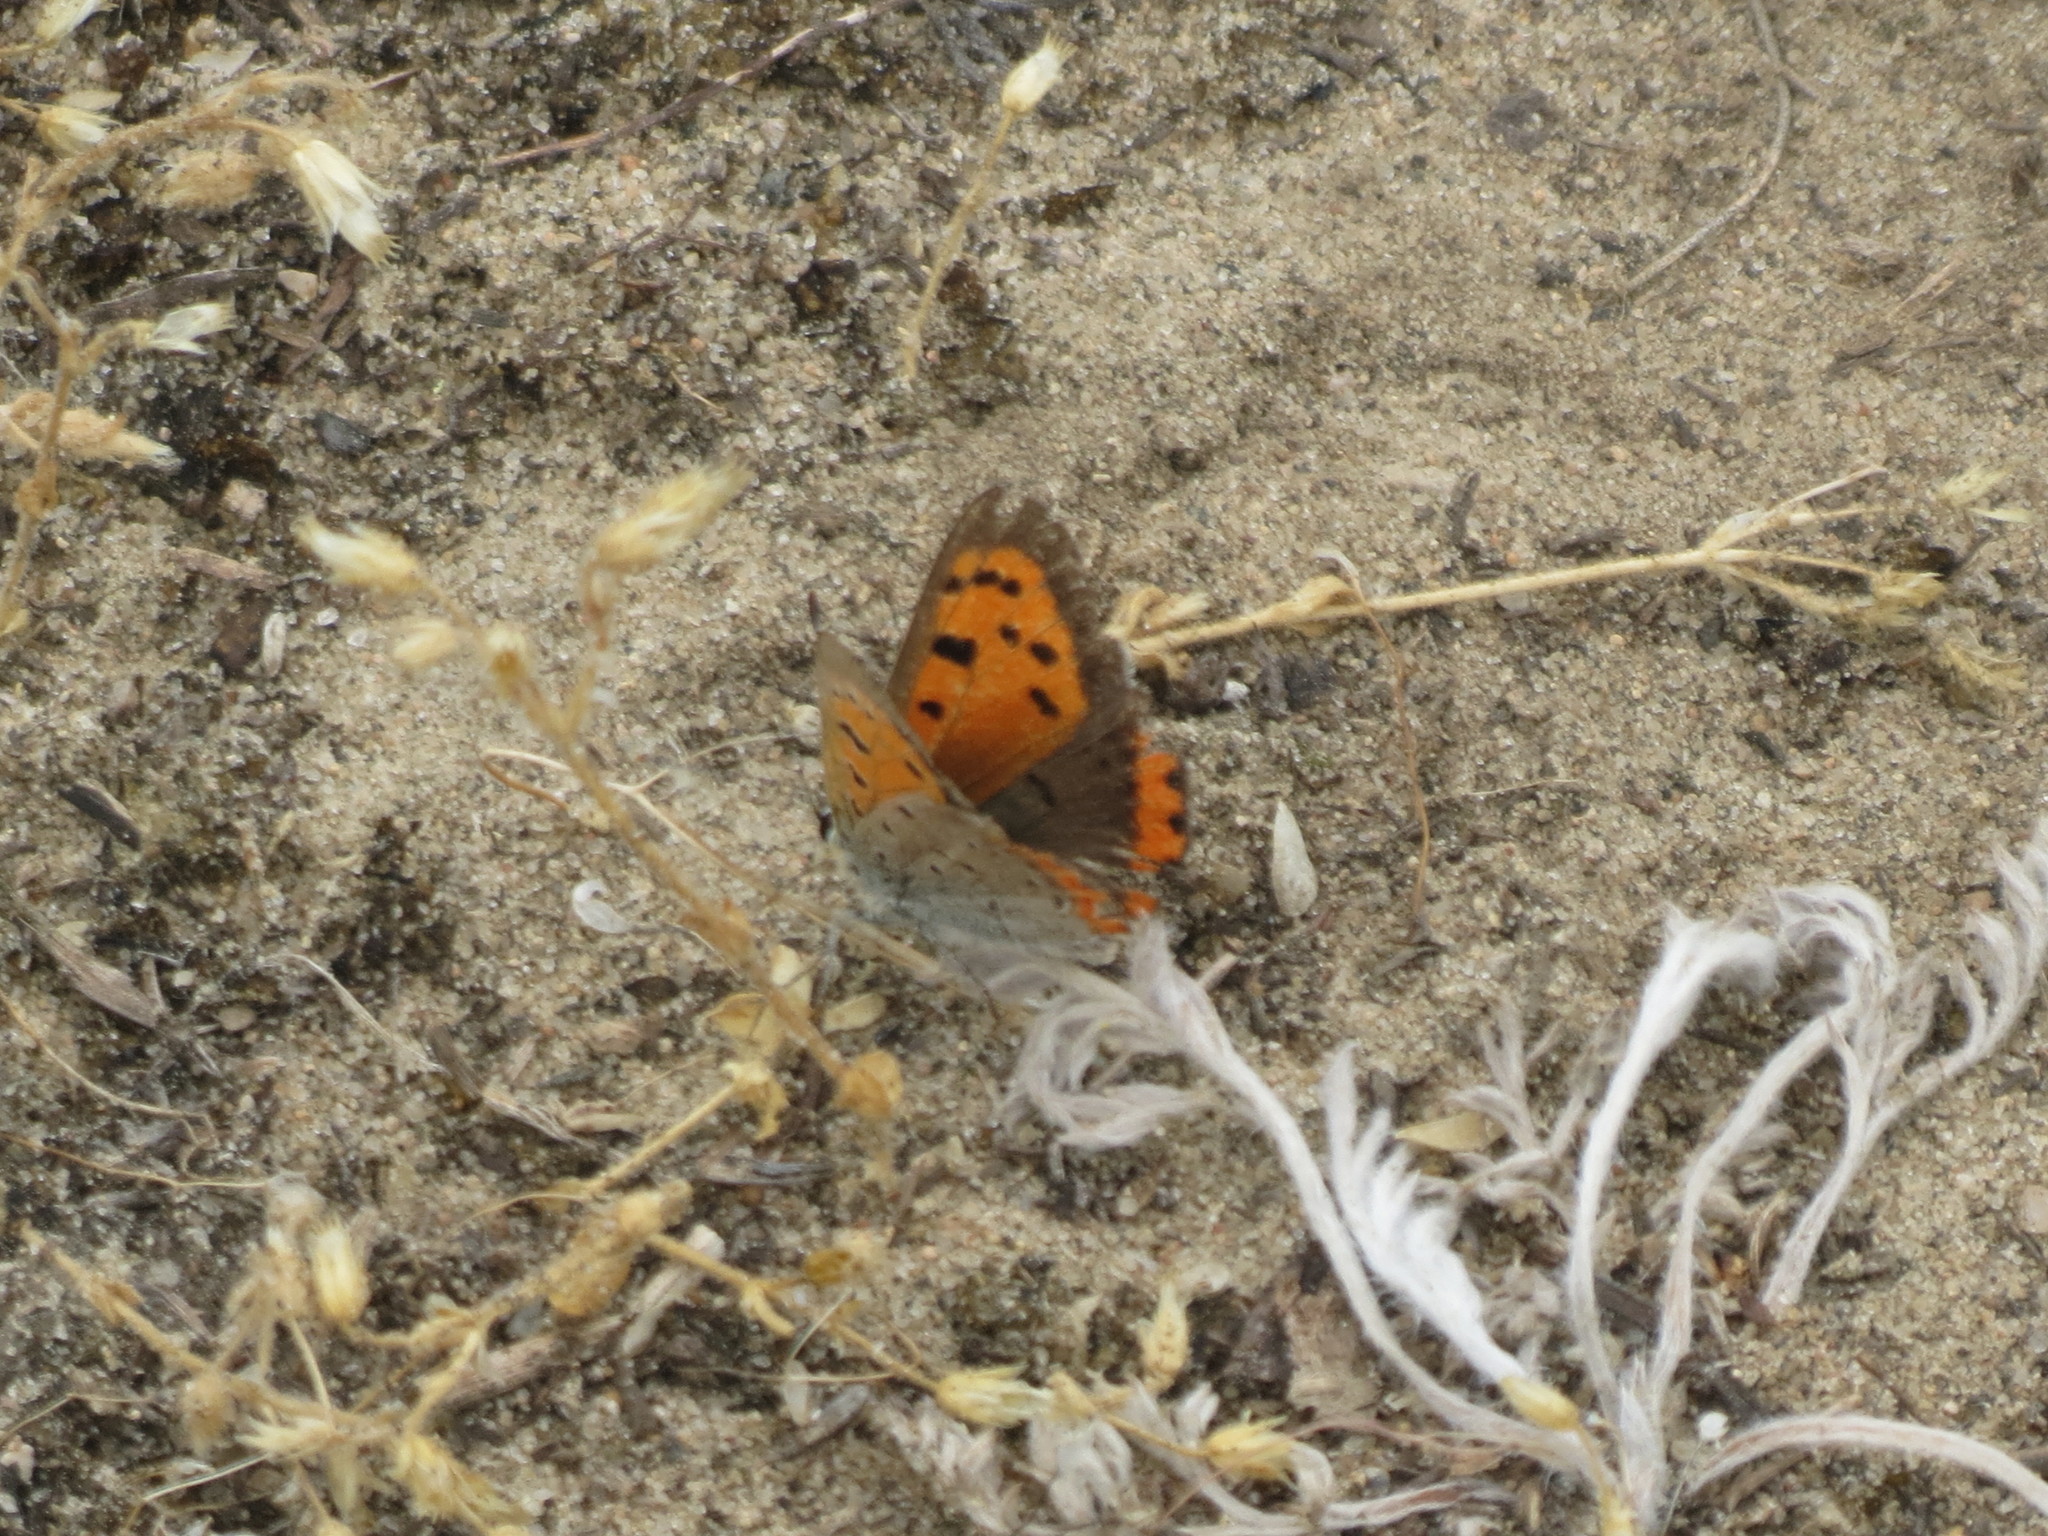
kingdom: Animalia
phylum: Arthropoda
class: Insecta
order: Lepidoptera
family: Lycaenidae
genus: Lycaena
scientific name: Lycaena hypophlaeas
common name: American copper
